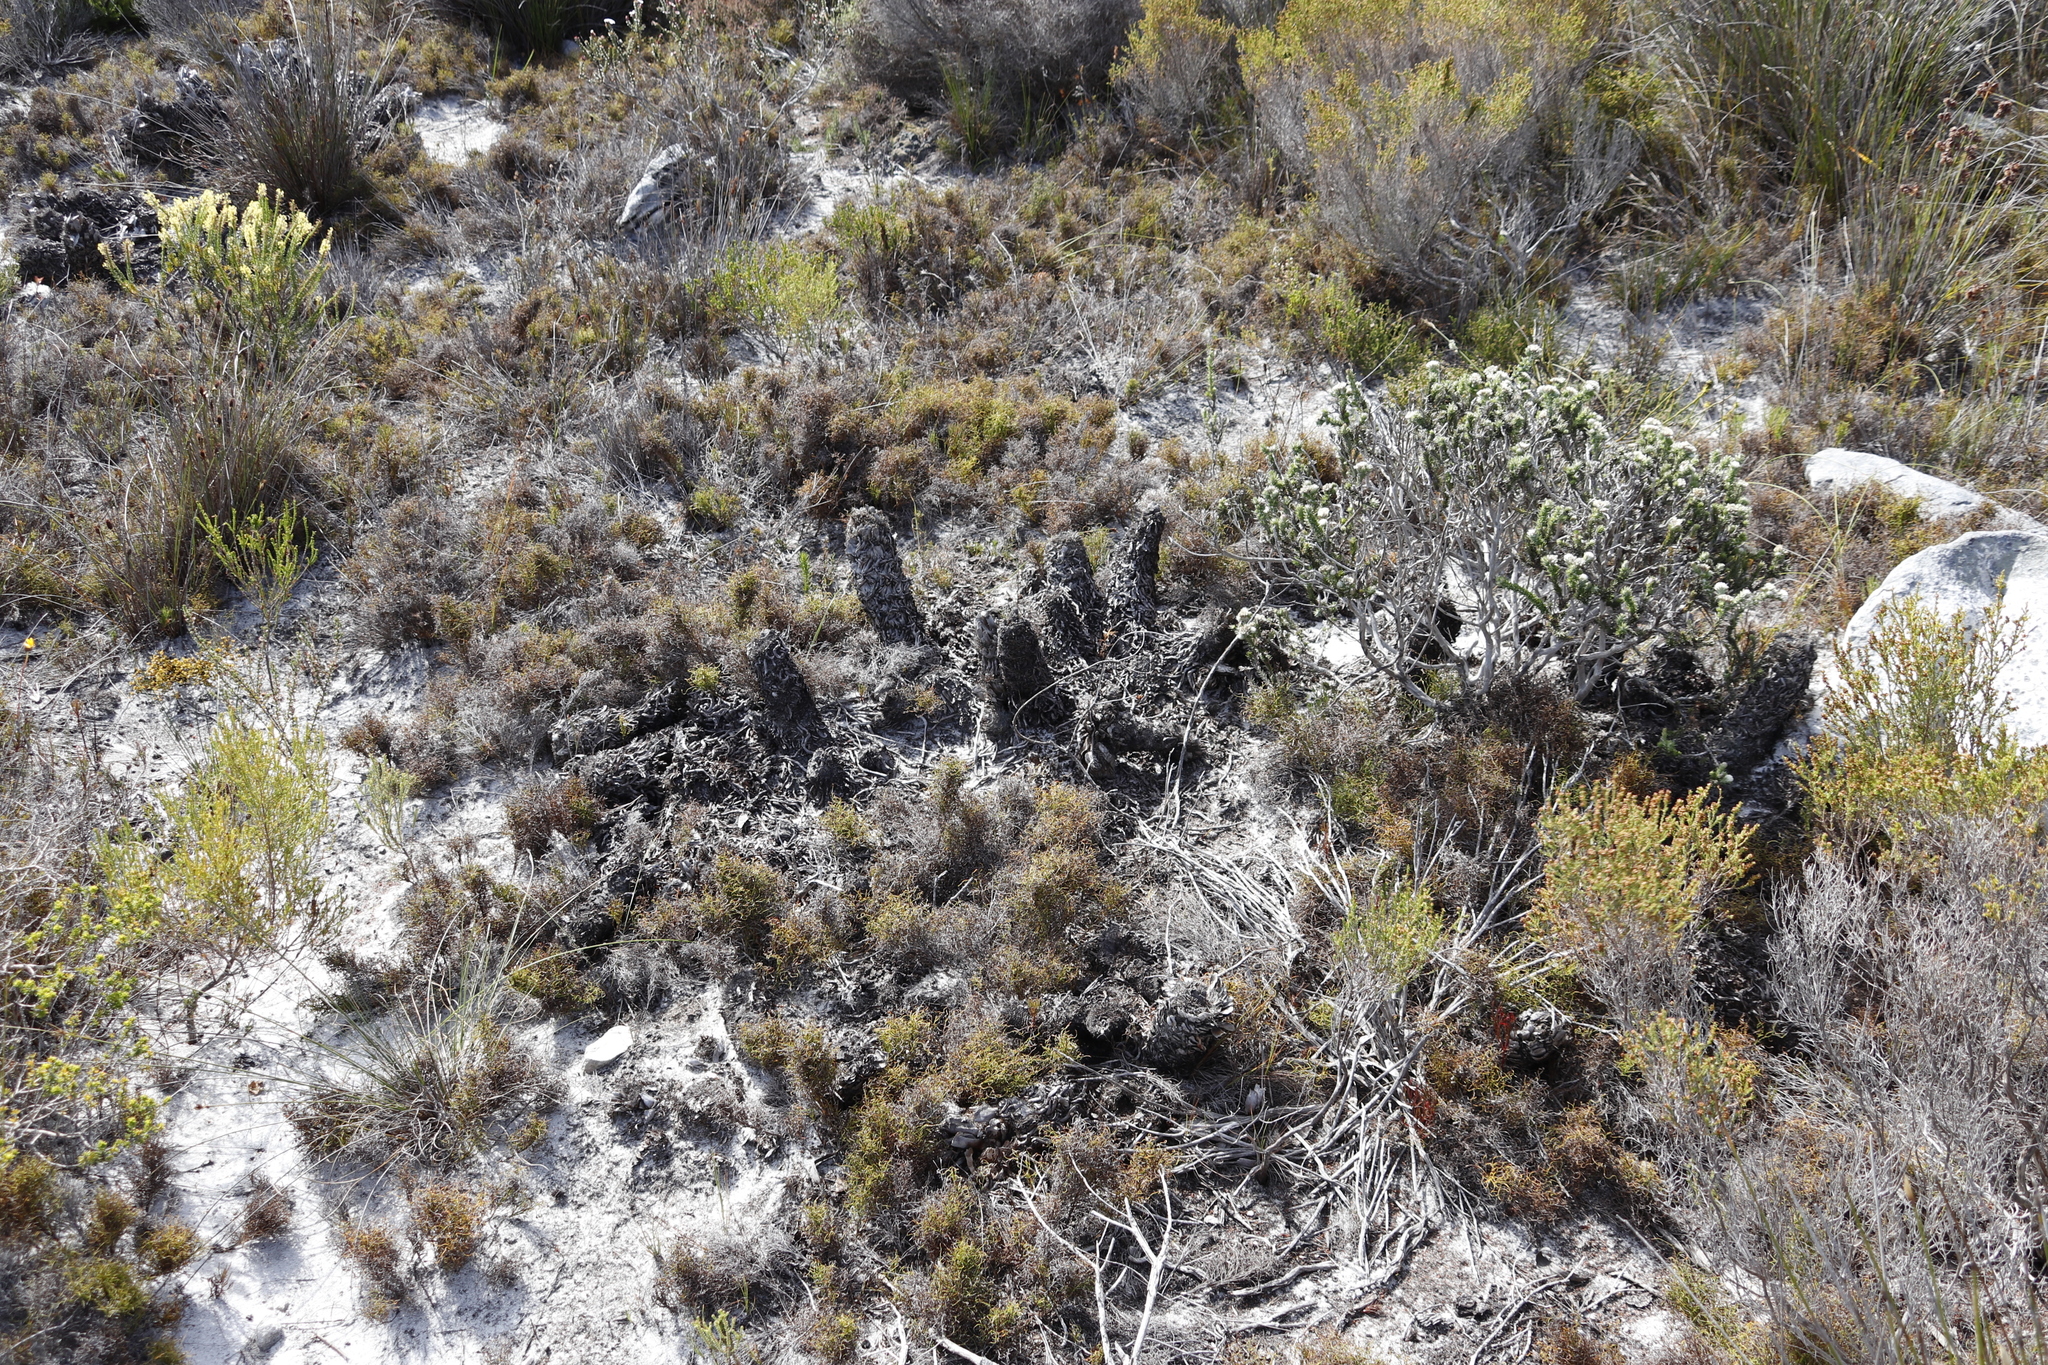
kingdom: Plantae
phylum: Tracheophyta
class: Liliopsida
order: Poales
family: Cyperaceae
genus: Tetraria
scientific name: Tetraria thermalis
